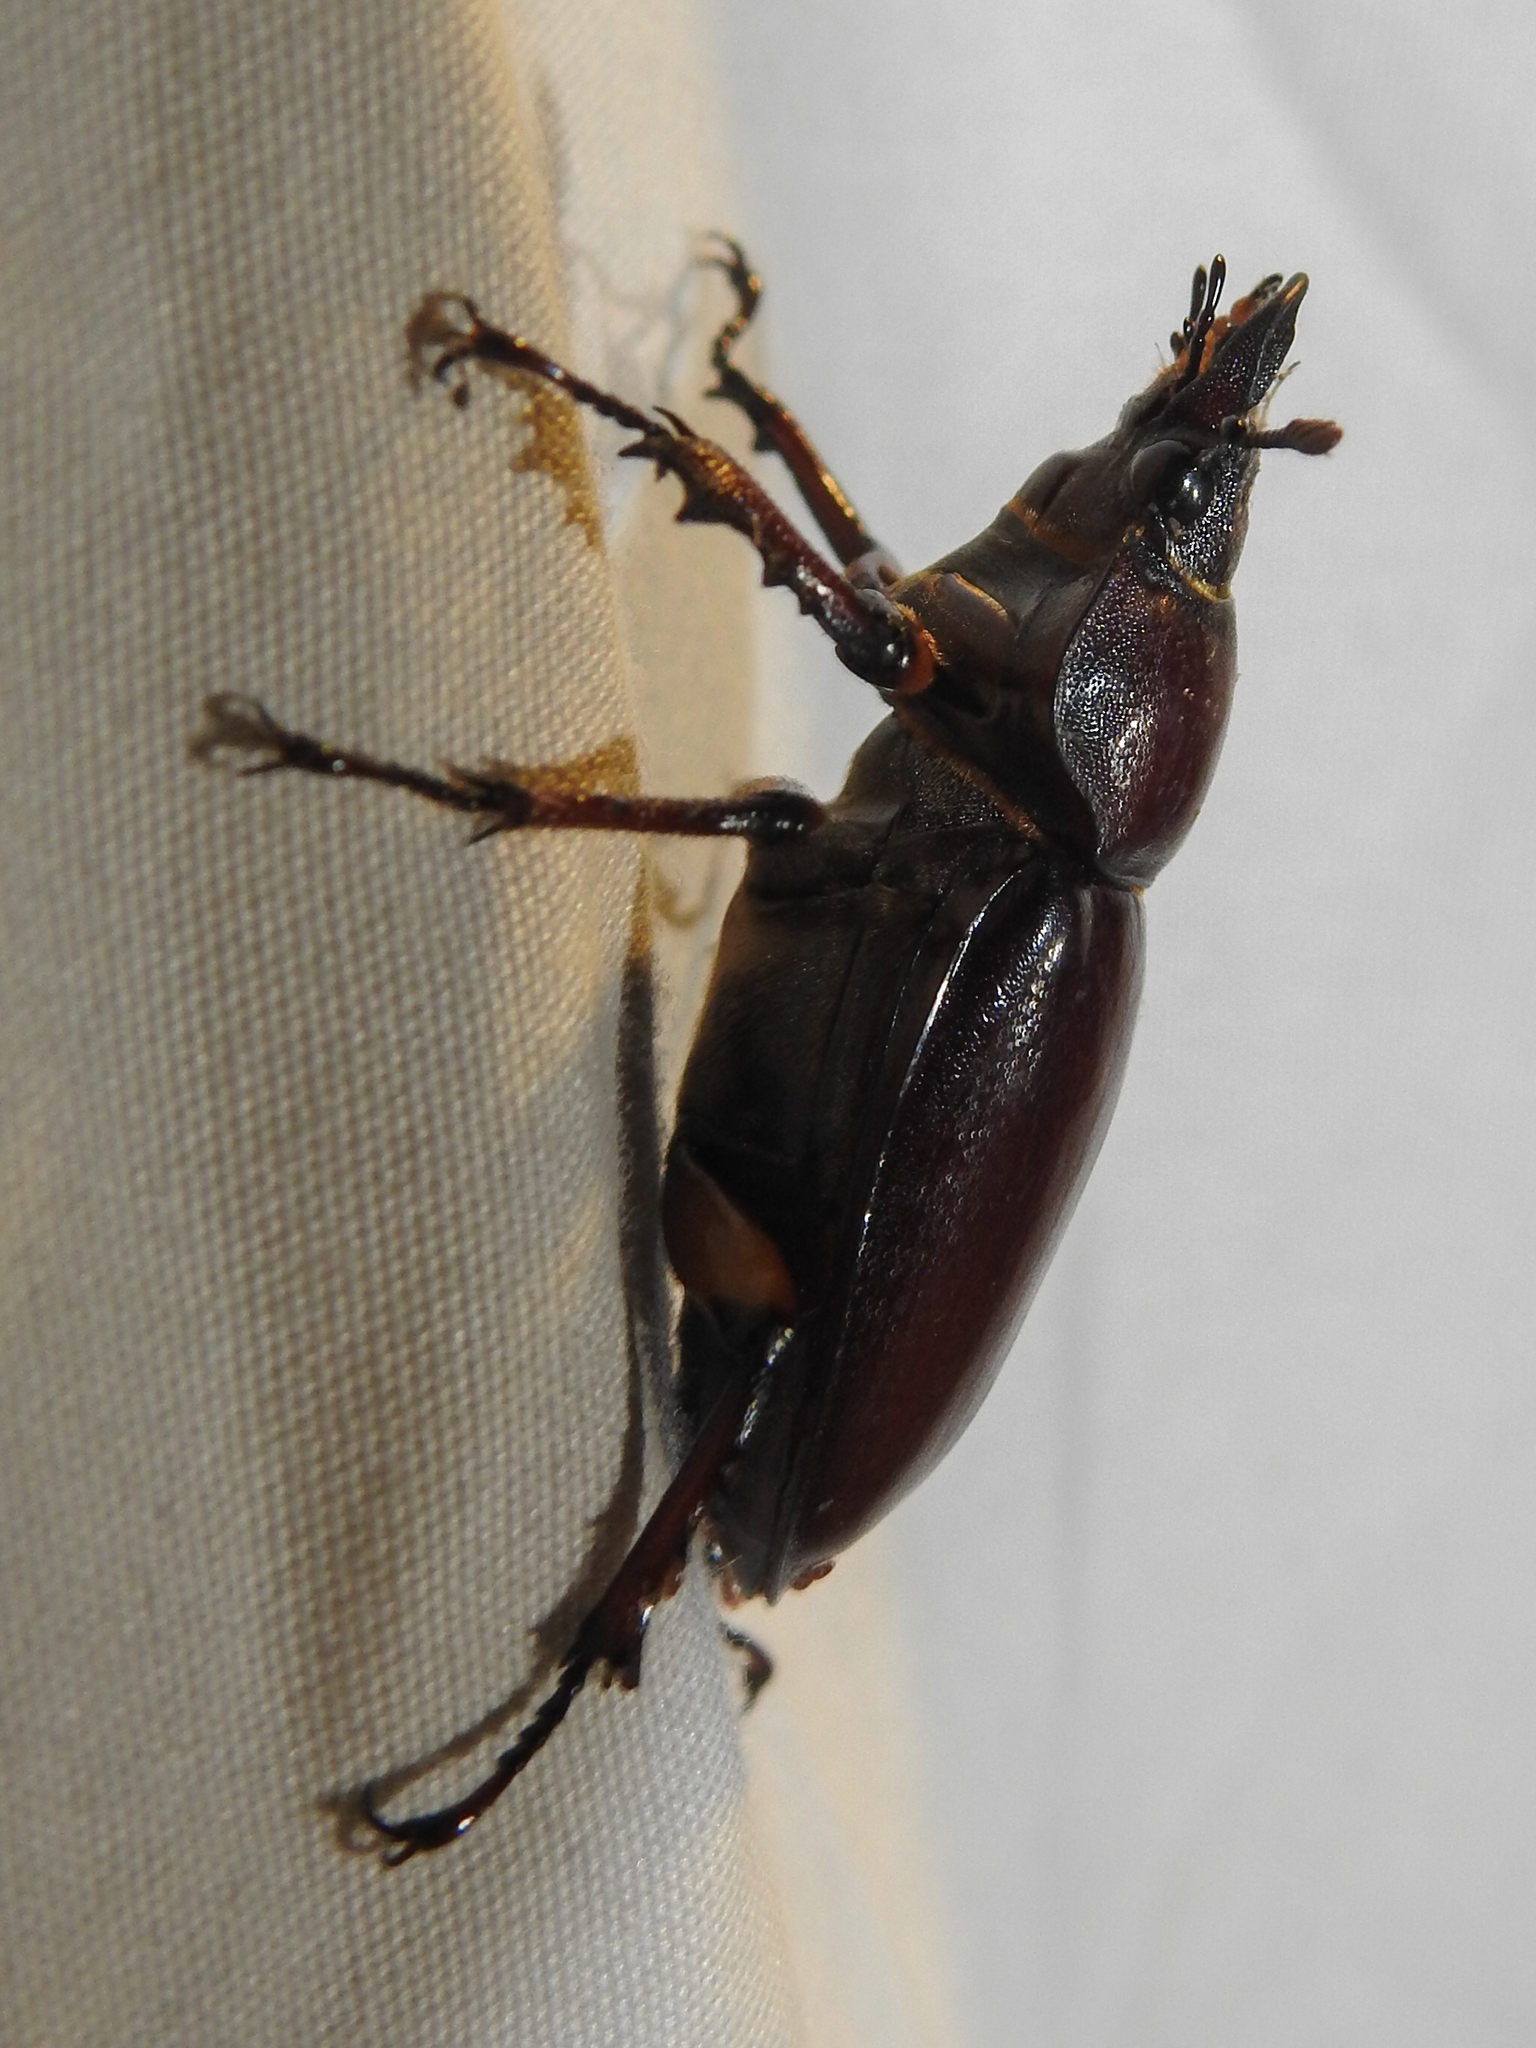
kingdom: Animalia
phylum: Arthropoda
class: Insecta
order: Coleoptera
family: Lucanidae
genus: Lucanus
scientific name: Lucanus capreolus
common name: Stag beetle
